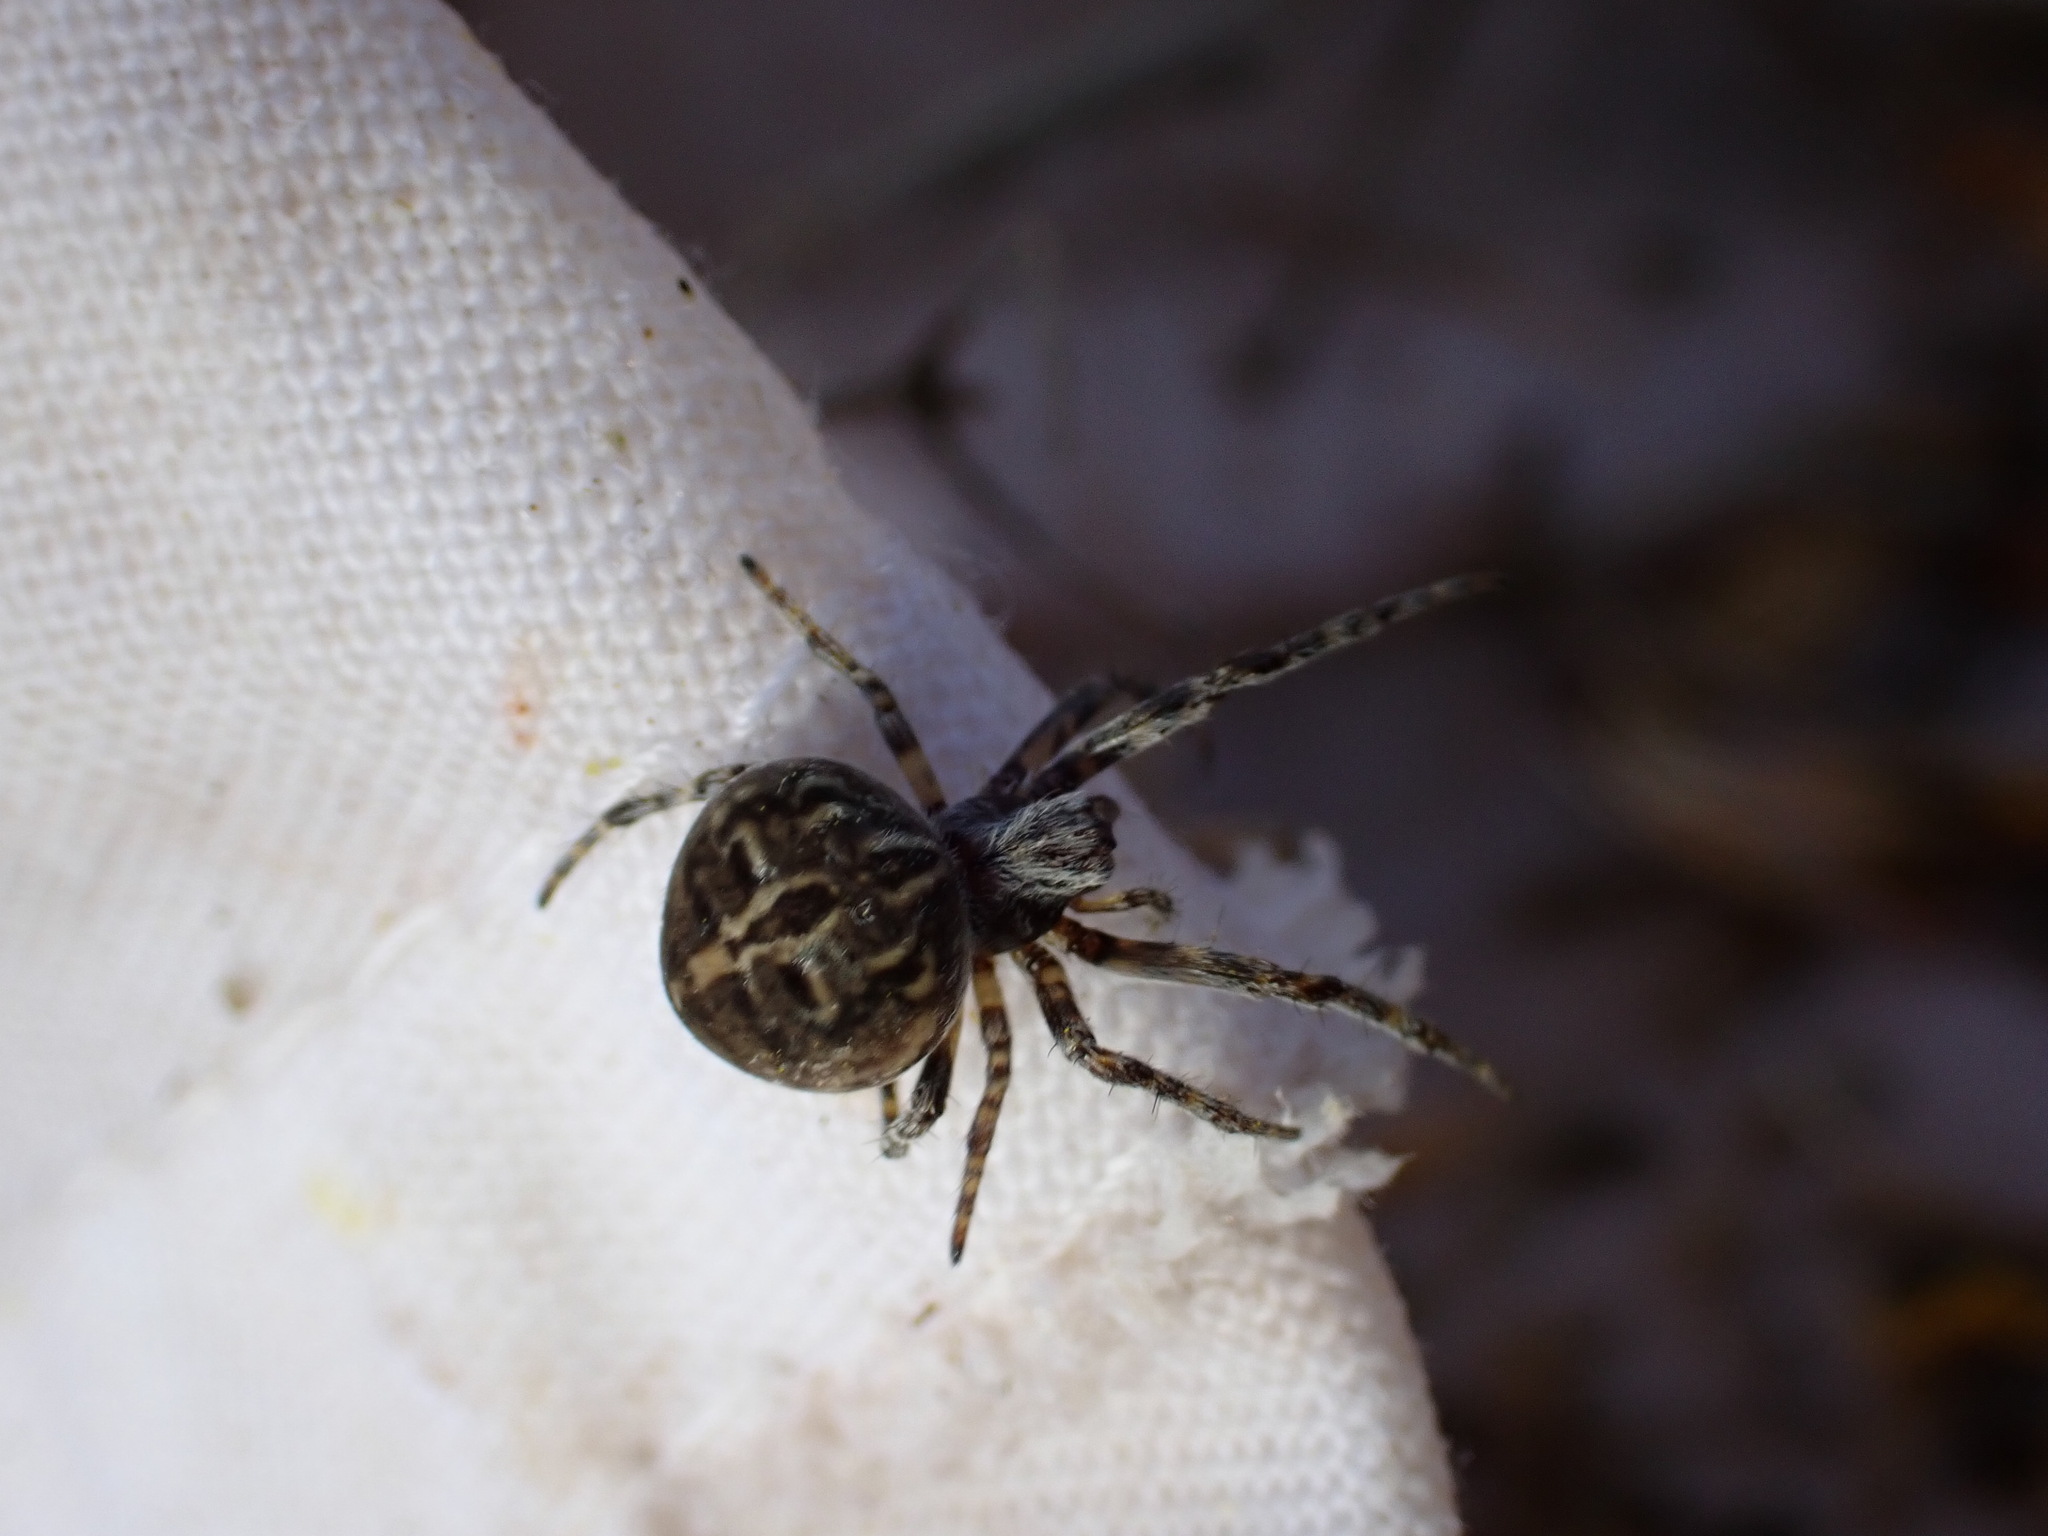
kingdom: Animalia
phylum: Arthropoda
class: Arachnida
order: Araneae
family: Araneidae
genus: Agalenatea
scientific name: Agalenatea redii
